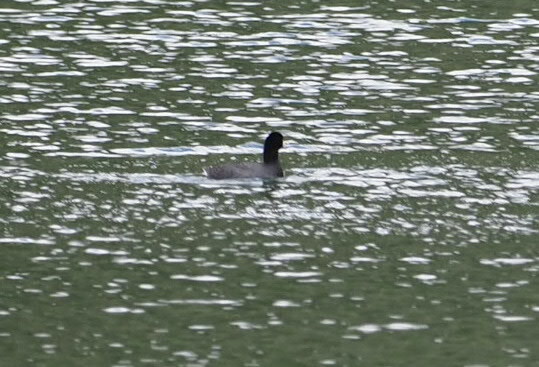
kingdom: Animalia
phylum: Chordata
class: Aves
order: Gruiformes
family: Rallidae
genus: Fulica
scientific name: Fulica americana
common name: American coot
